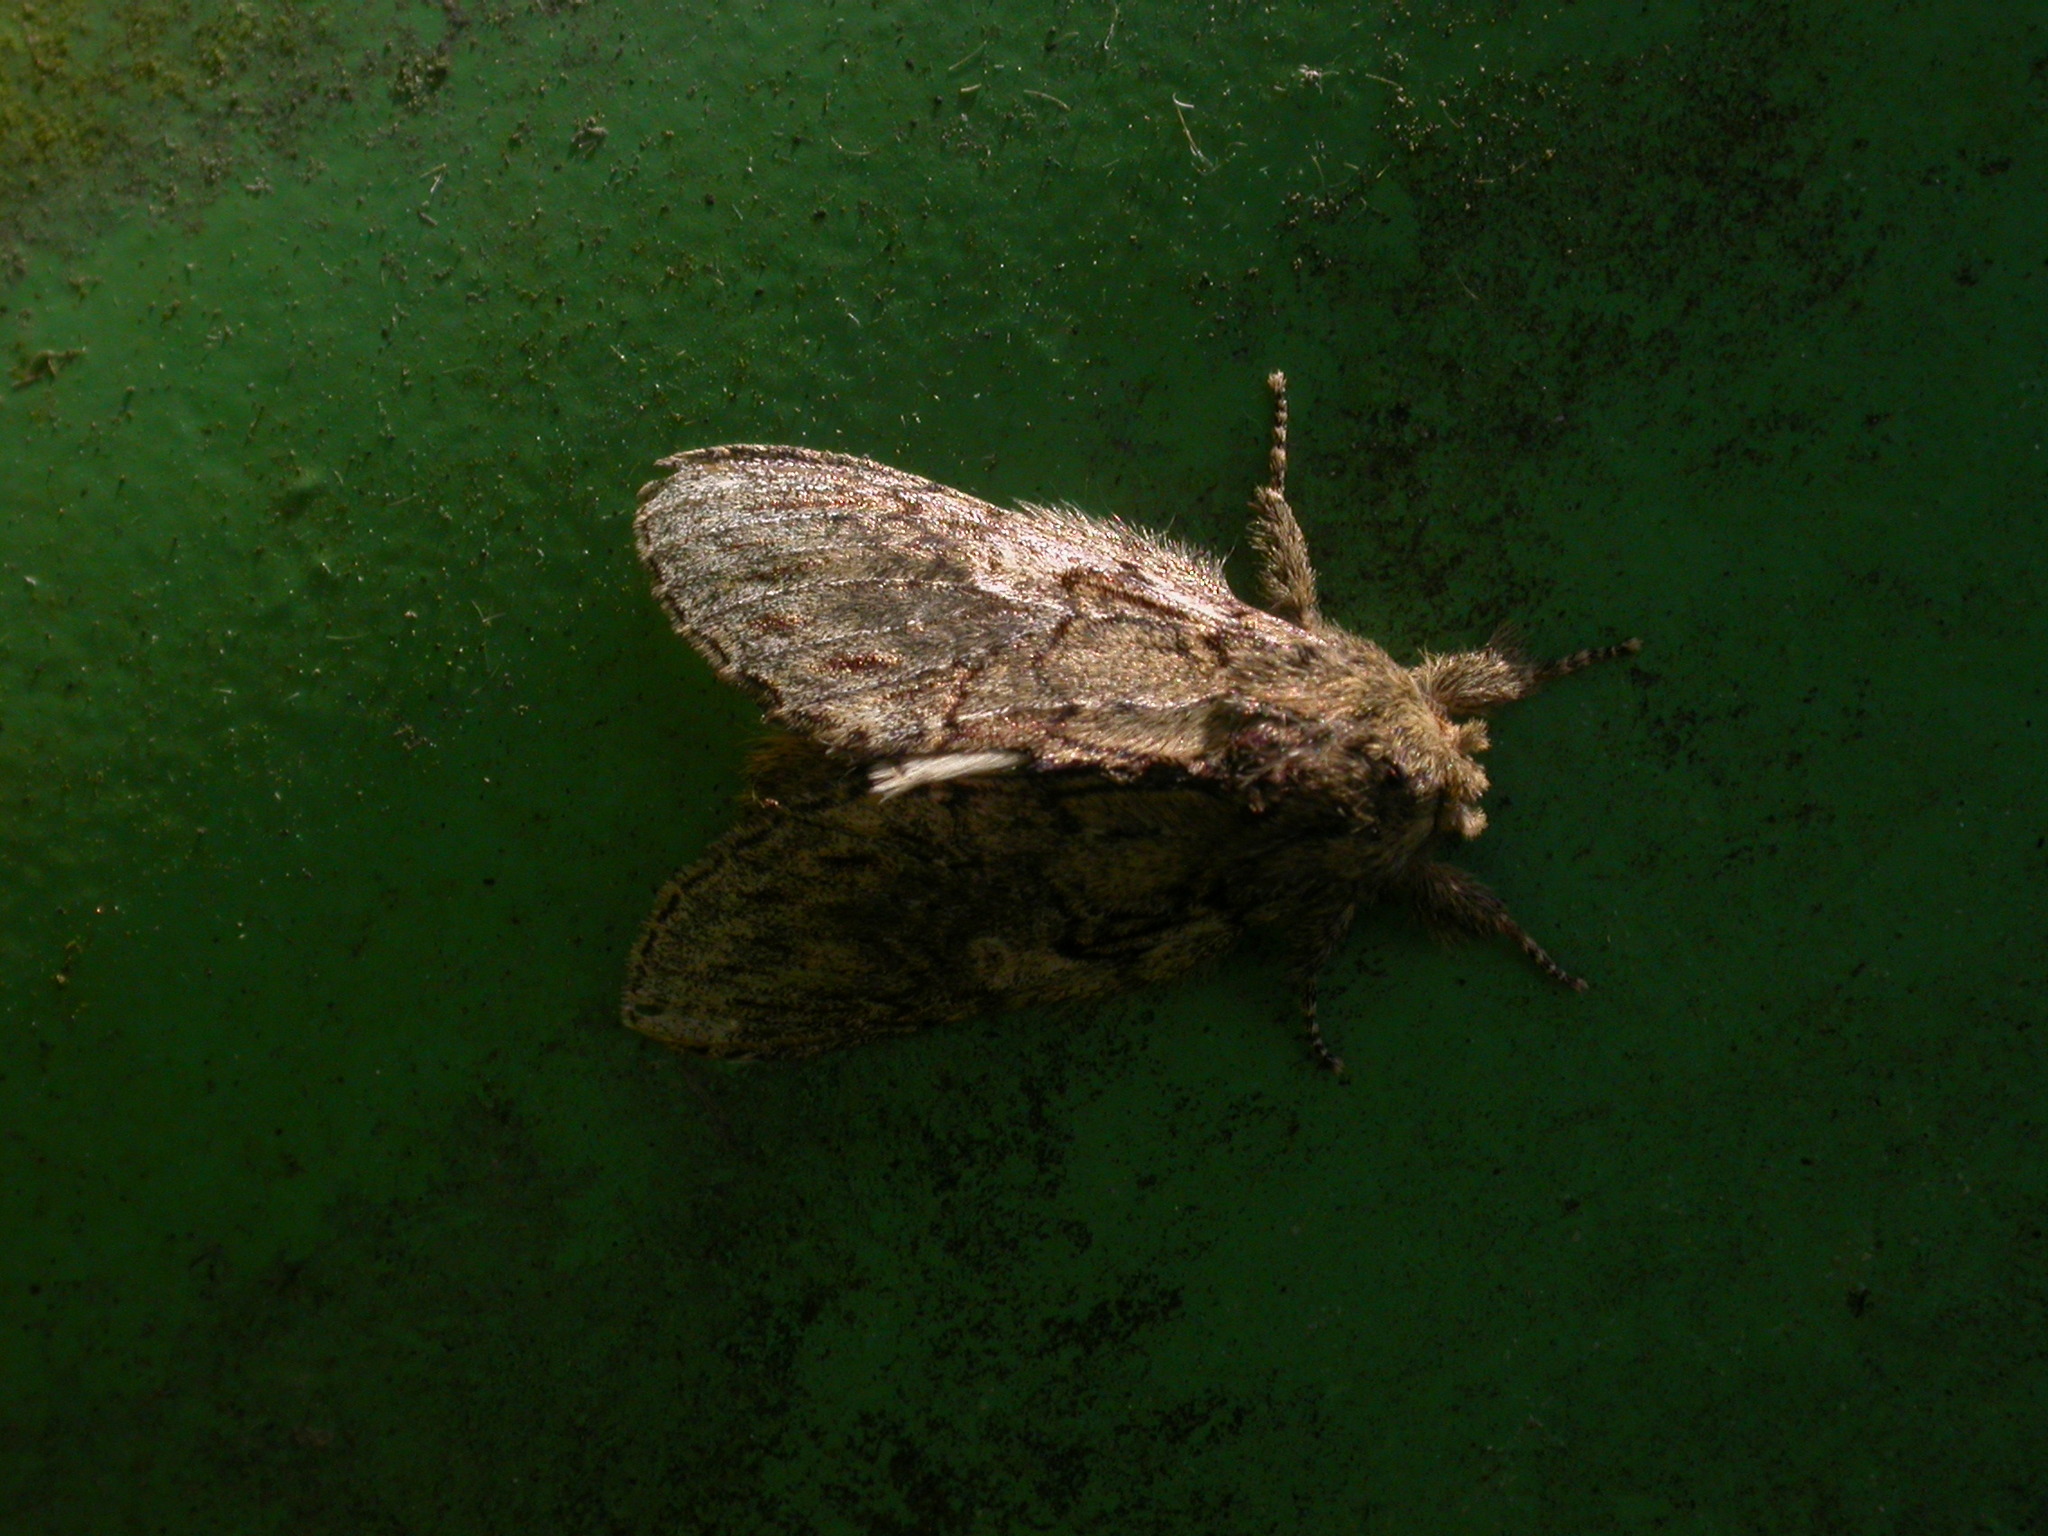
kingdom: Animalia
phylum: Arthropoda
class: Insecta
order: Lepidoptera
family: Notodontidae
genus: Peridea
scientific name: Peridea anceps
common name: Great prominent
